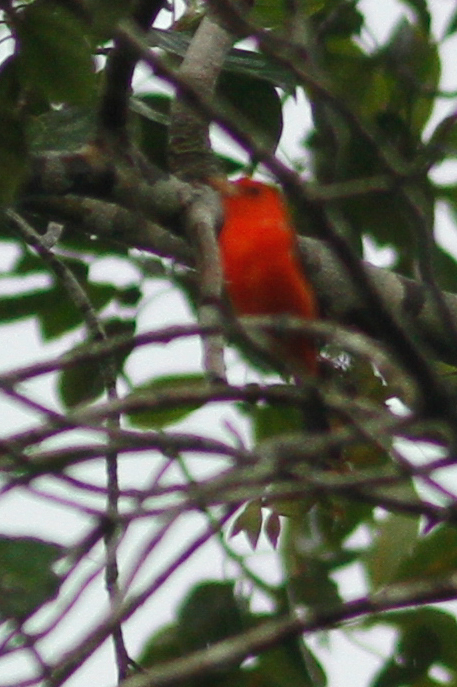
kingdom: Animalia
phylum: Chordata
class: Aves
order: Passeriformes
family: Cardinalidae
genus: Piranga
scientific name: Piranga rubra
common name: Summer tanager
